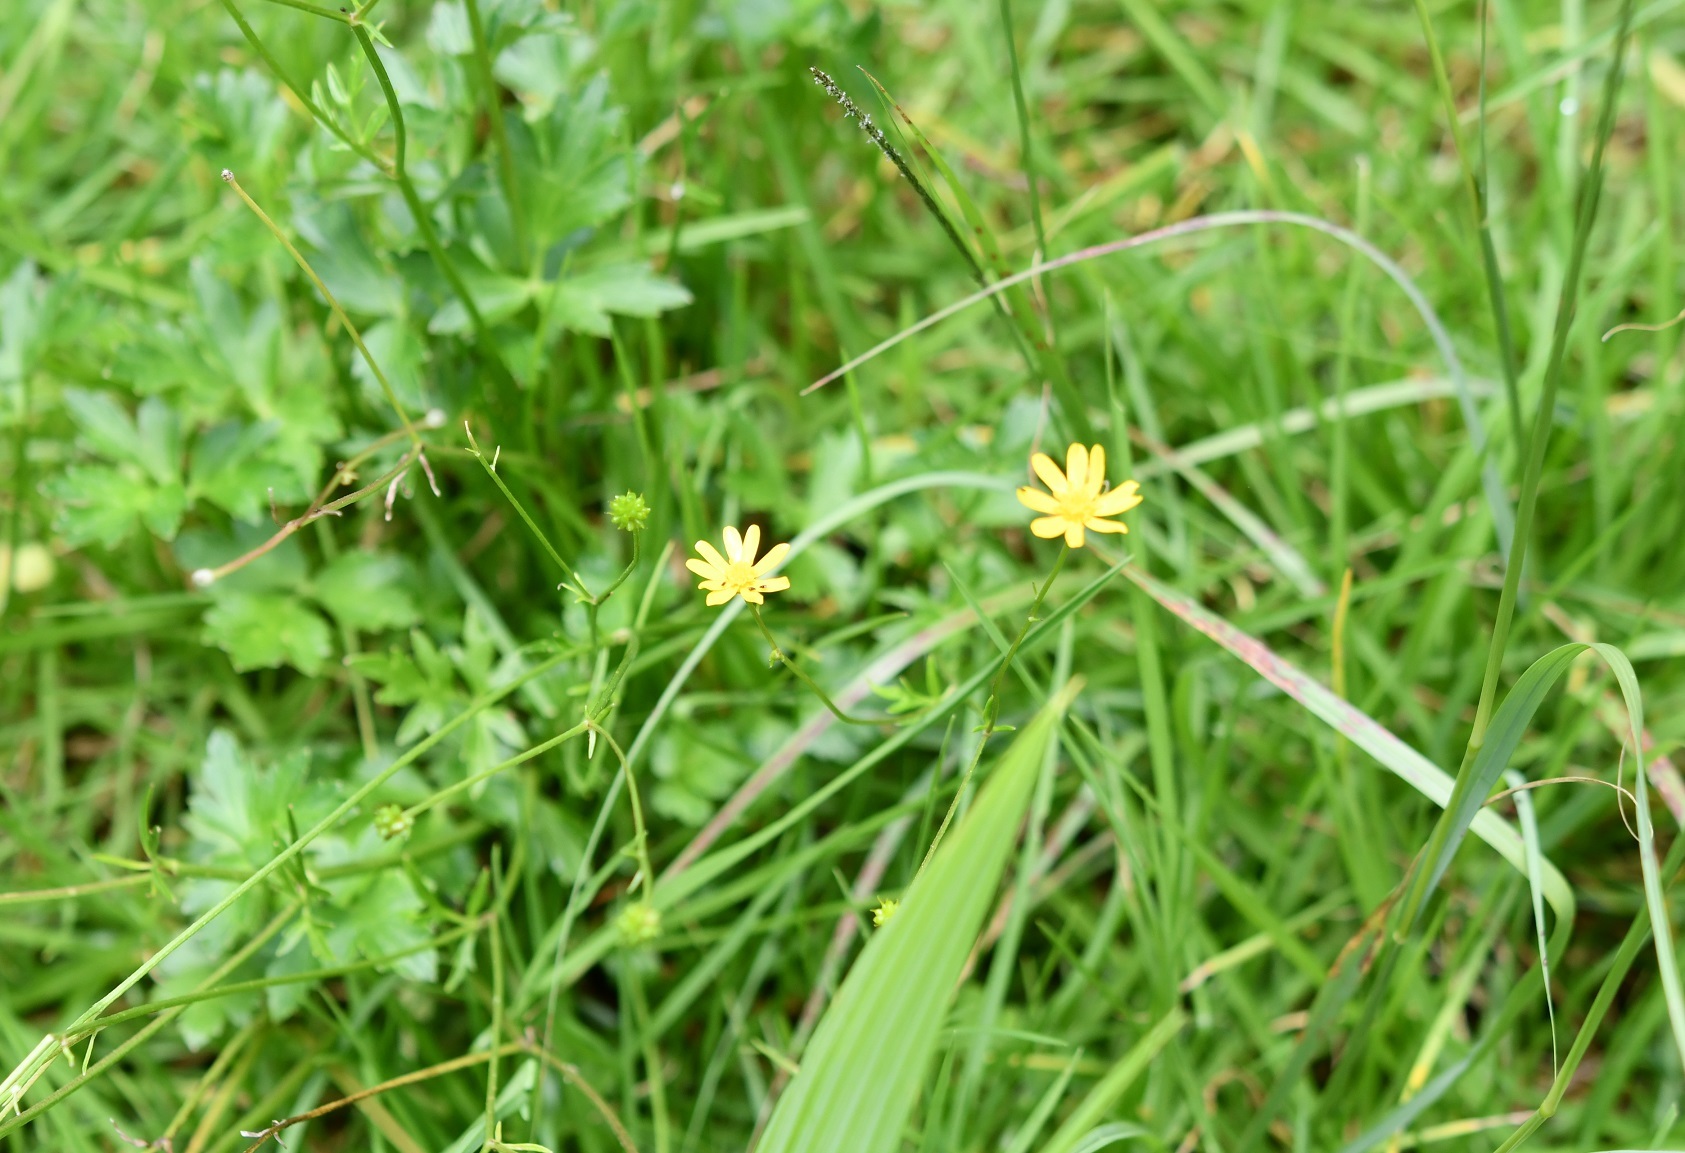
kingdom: Plantae
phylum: Tracheophyta
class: Magnoliopsida
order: Ranunculales
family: Ranunculaceae
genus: Ranunculus
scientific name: Ranunculus petiolaris
